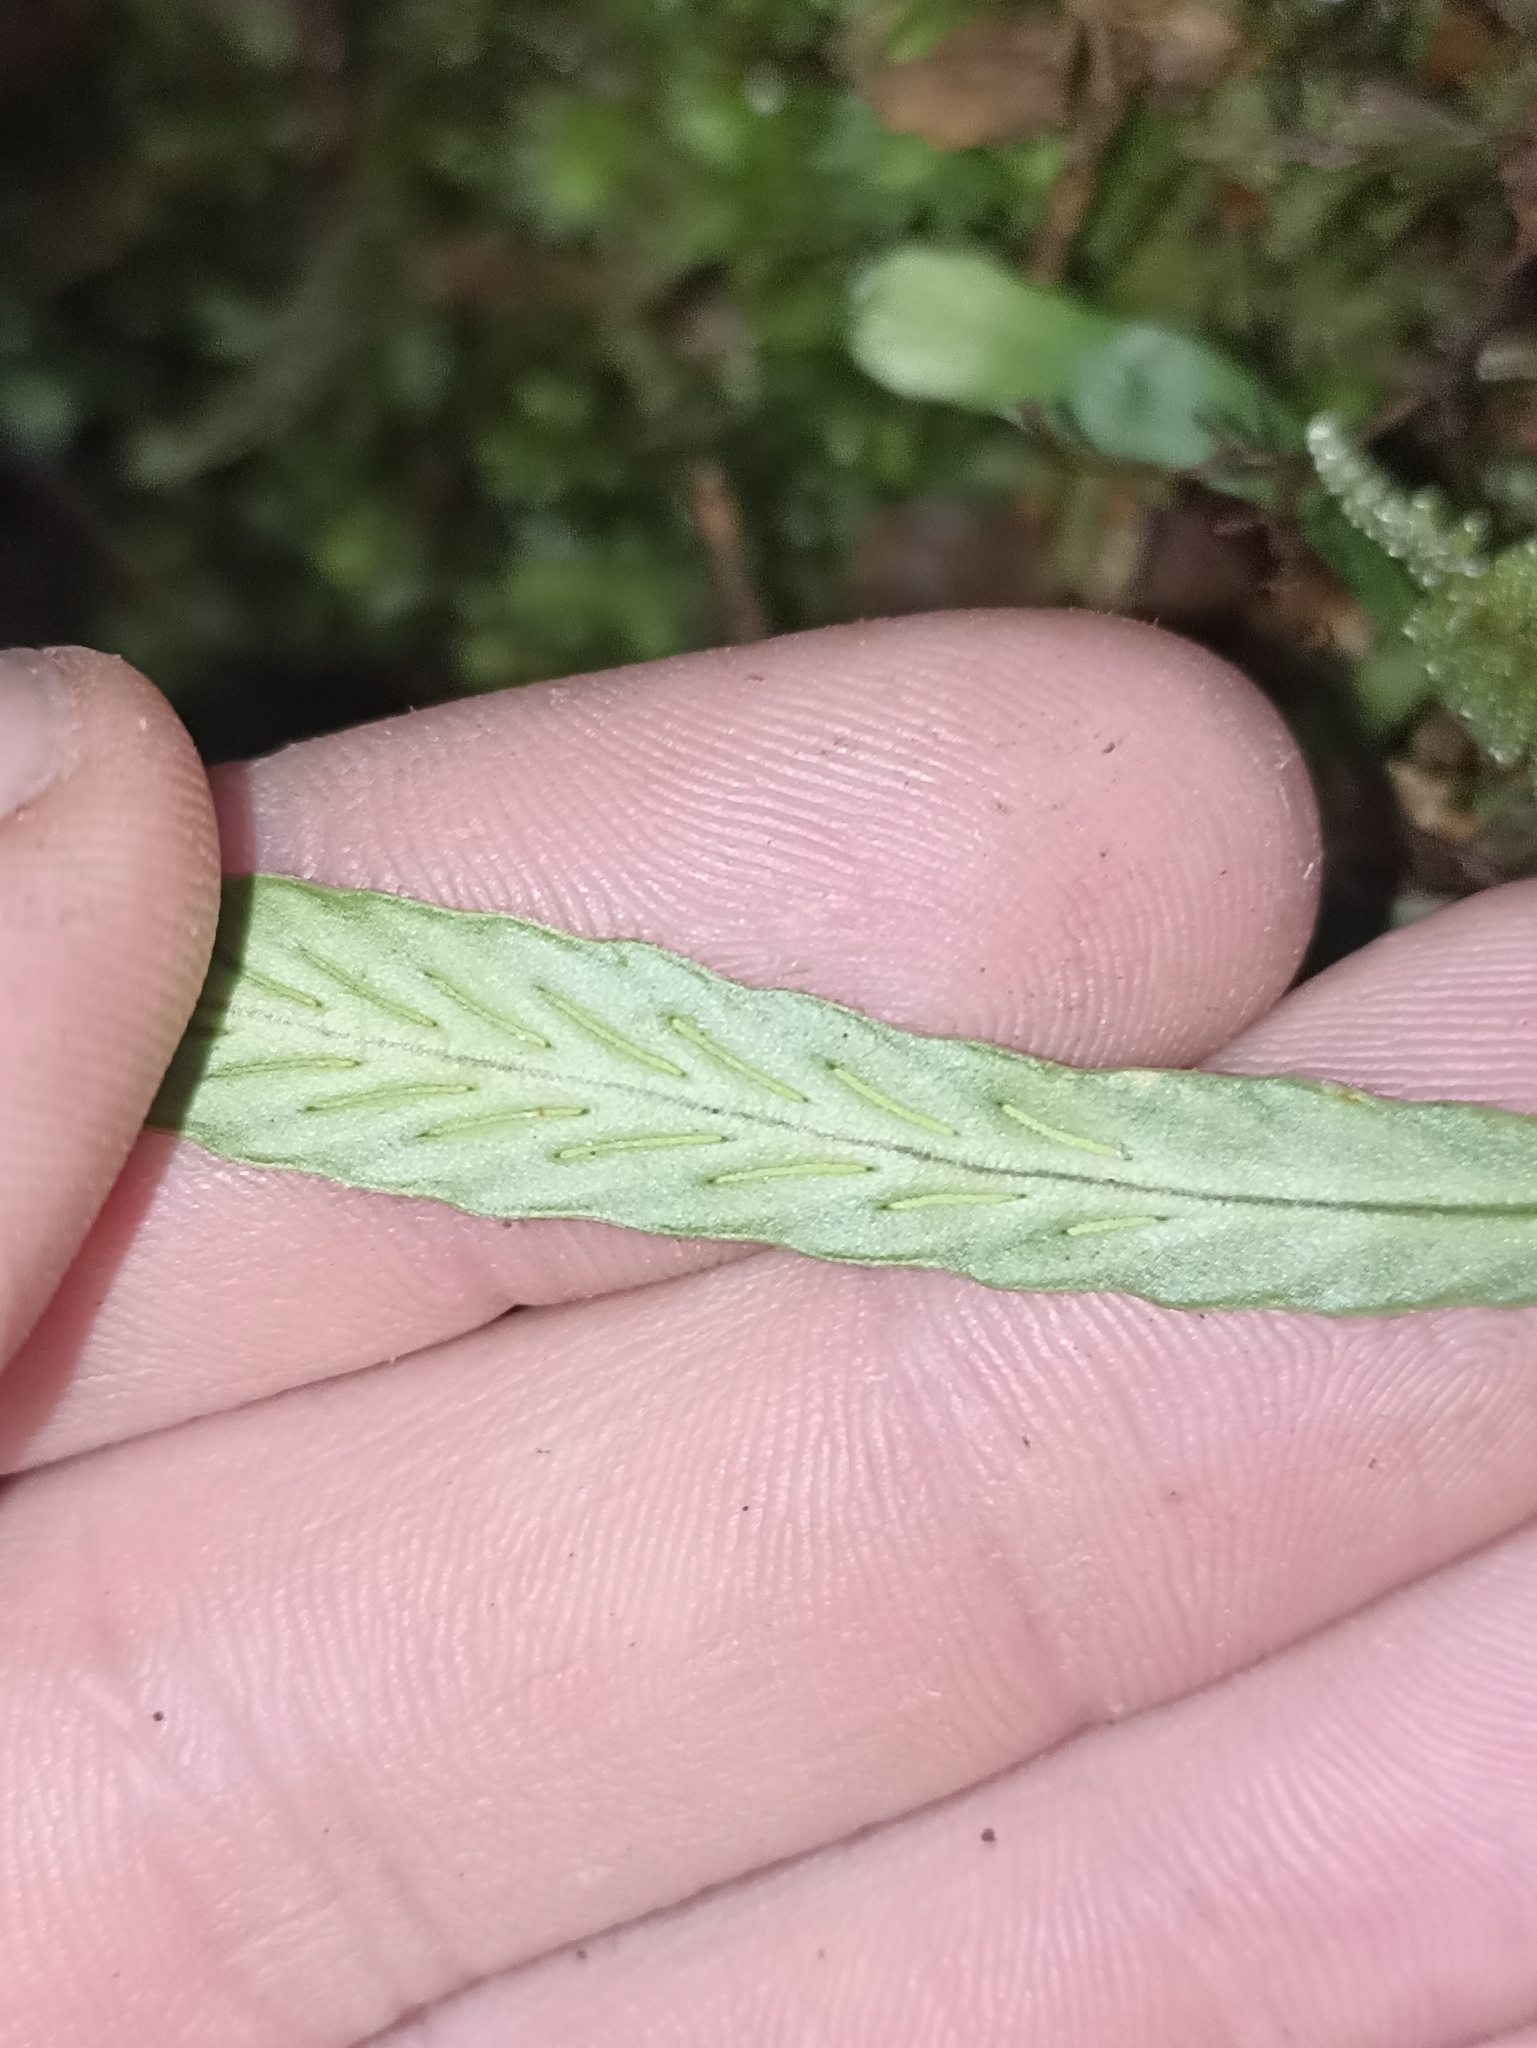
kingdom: Plantae
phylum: Tracheophyta
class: Polypodiopsida
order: Polypodiales
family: Polypodiaceae
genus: Notogrammitis
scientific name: Notogrammitis billardierei
